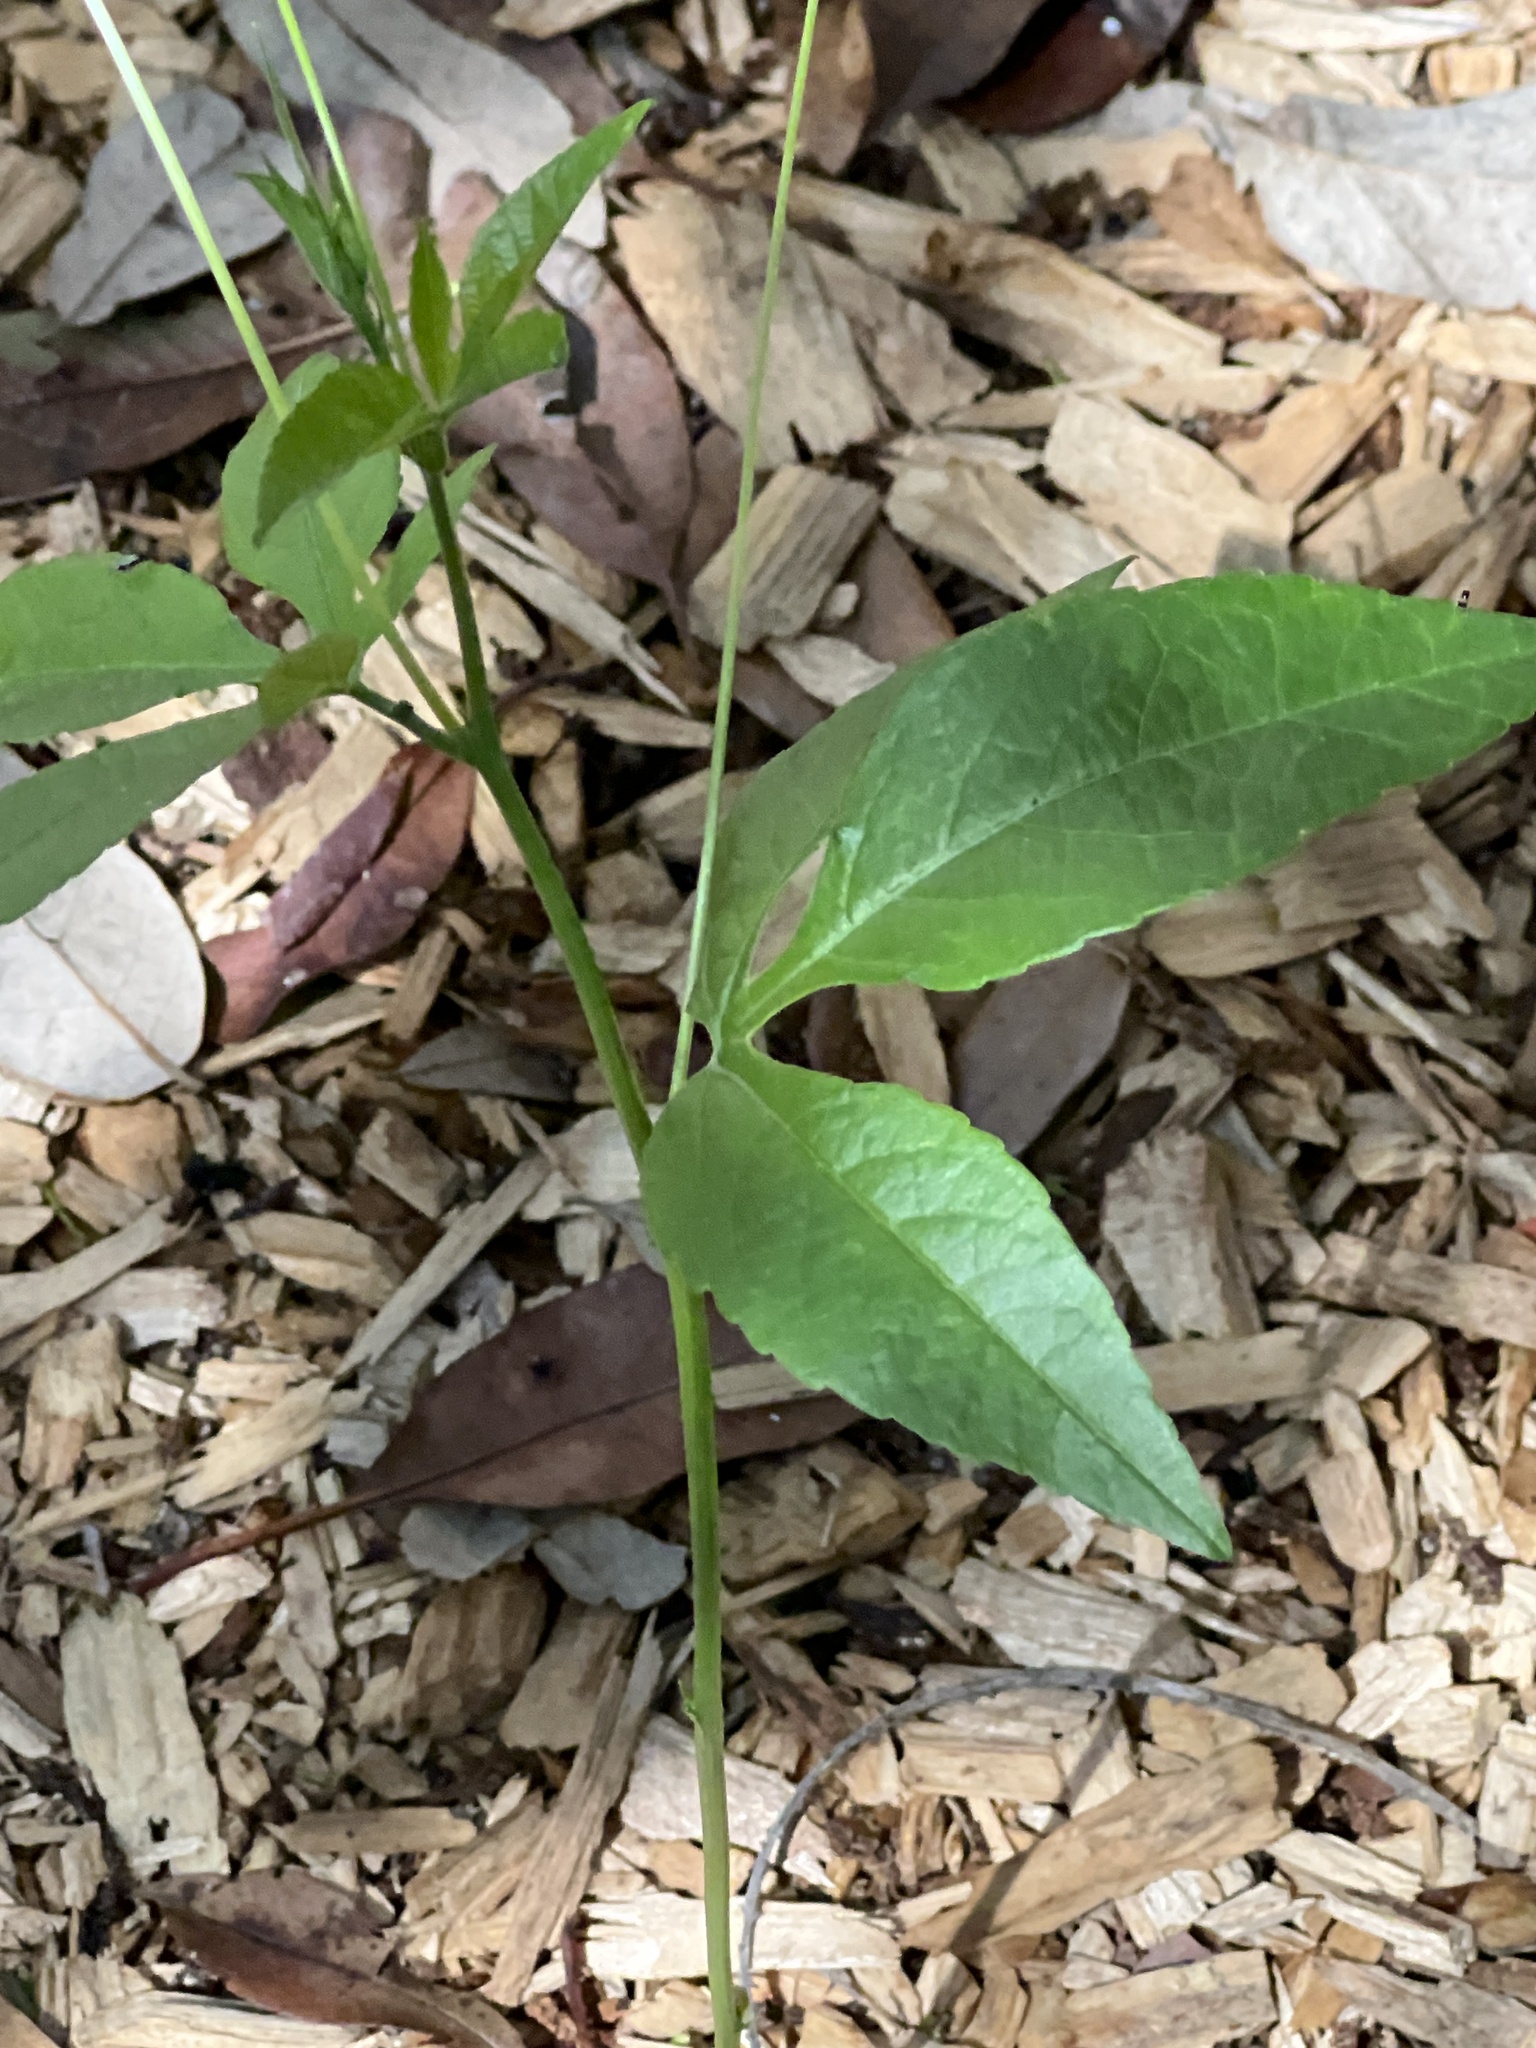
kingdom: Plantae
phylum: Tracheophyta
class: Magnoliopsida
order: Malpighiales
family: Passifloraceae
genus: Passiflora
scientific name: Passiflora
